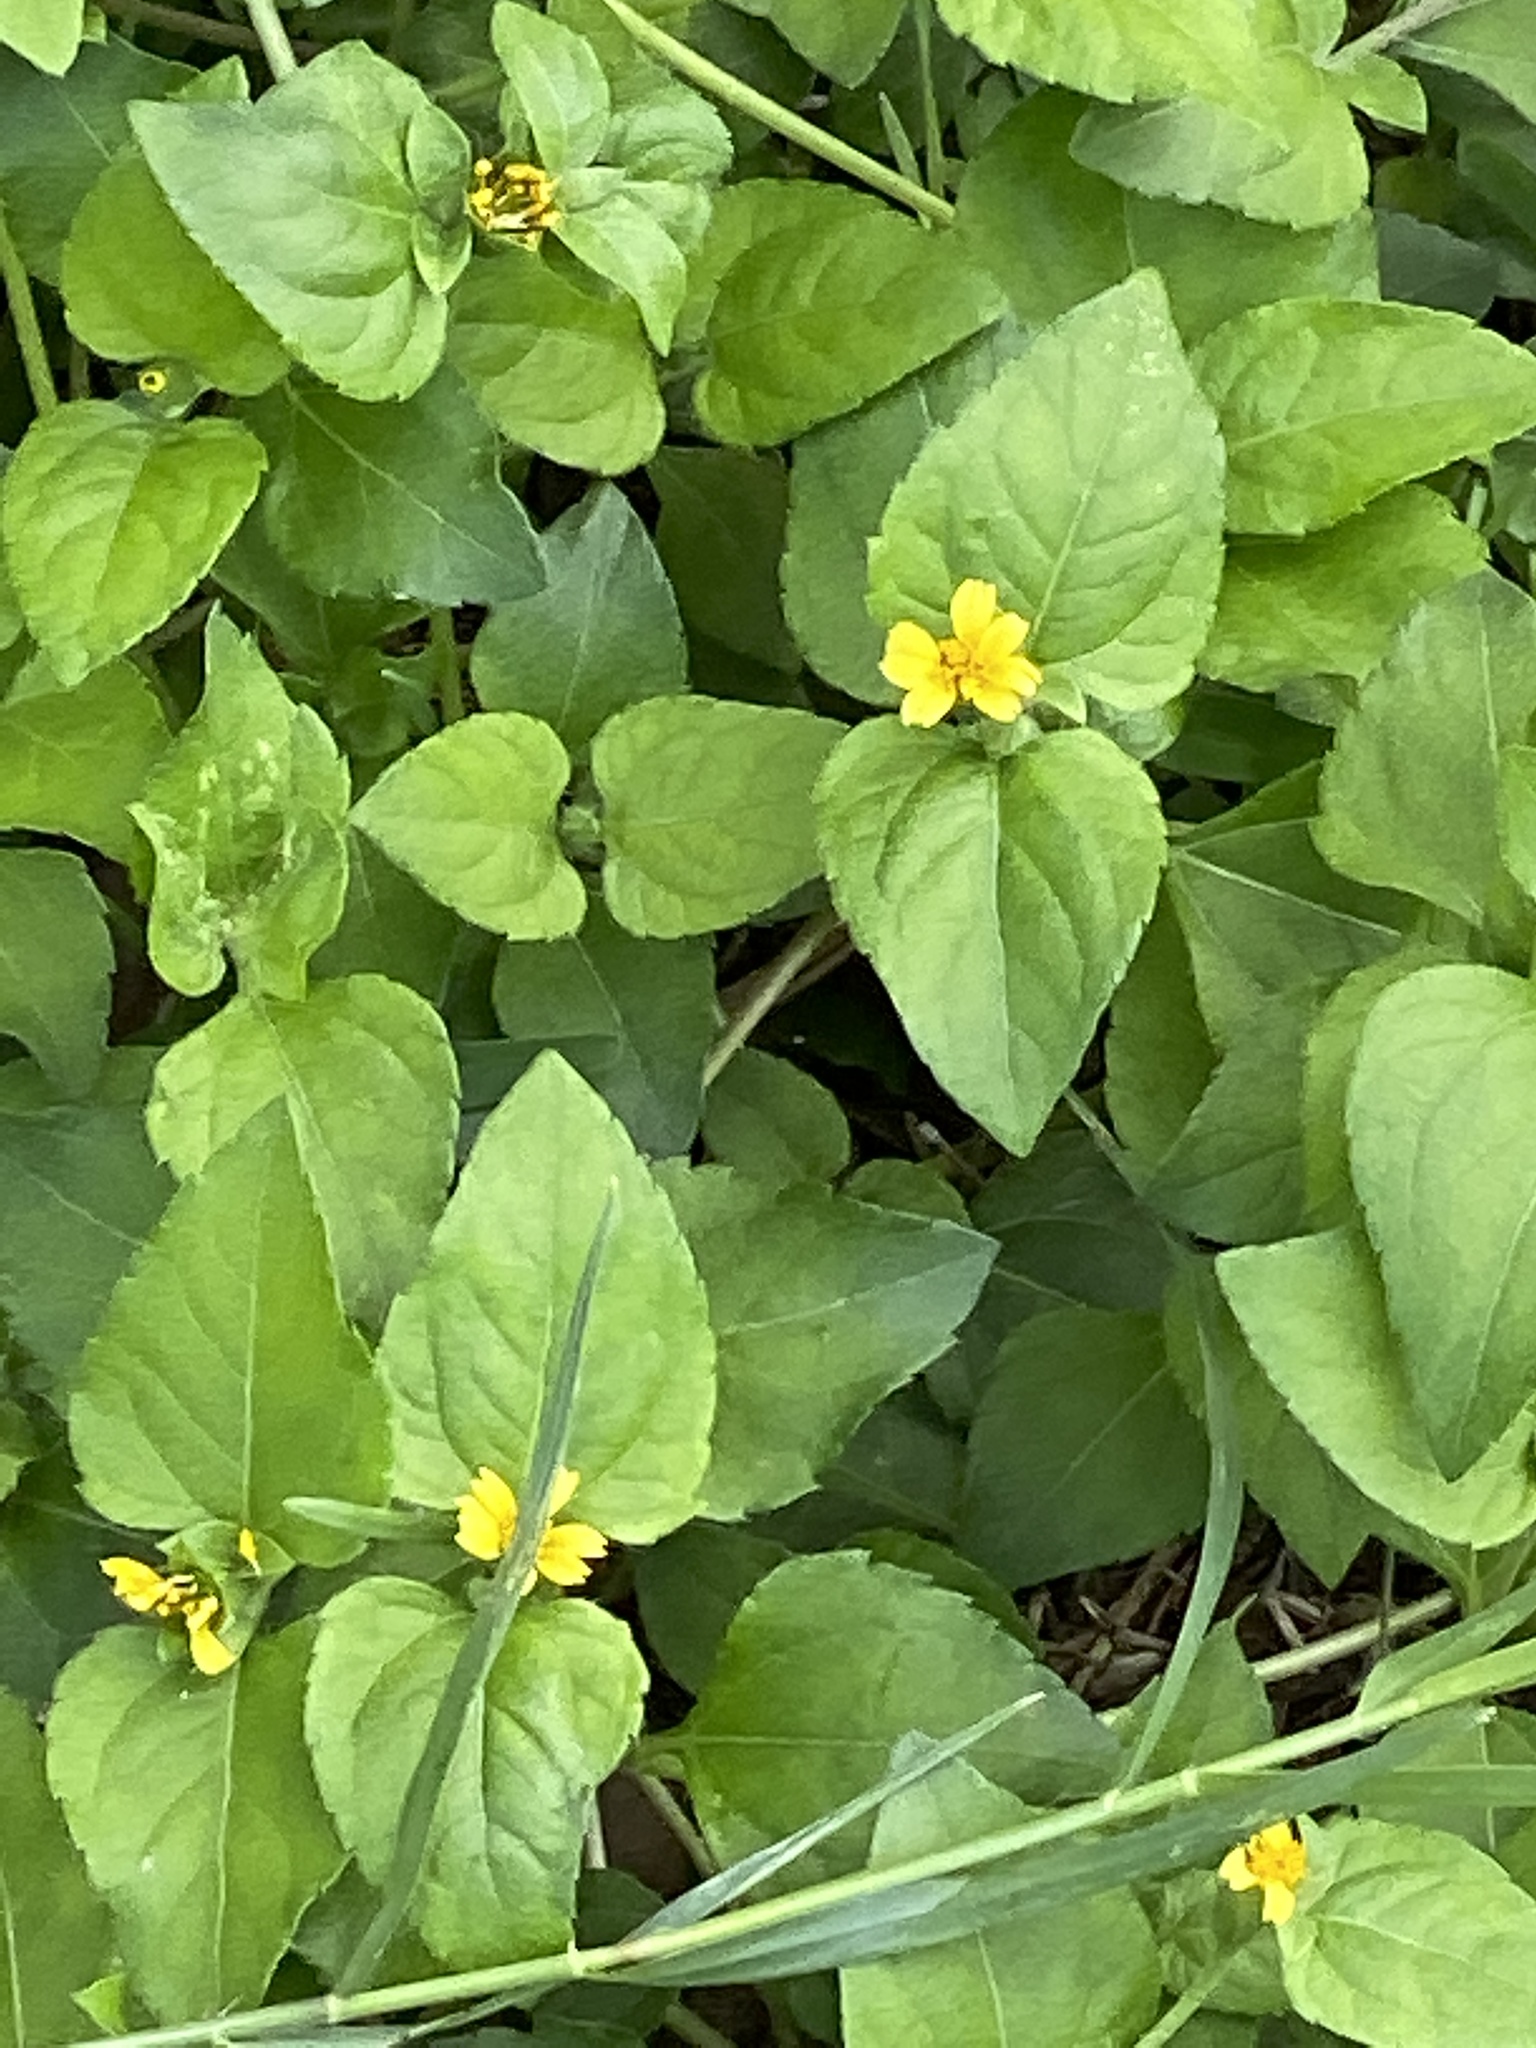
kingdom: Plantae
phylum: Tracheophyta
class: Magnoliopsida
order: Asterales
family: Asteraceae
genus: Calyptocarpus
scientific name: Calyptocarpus vialis
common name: Straggler daisy
